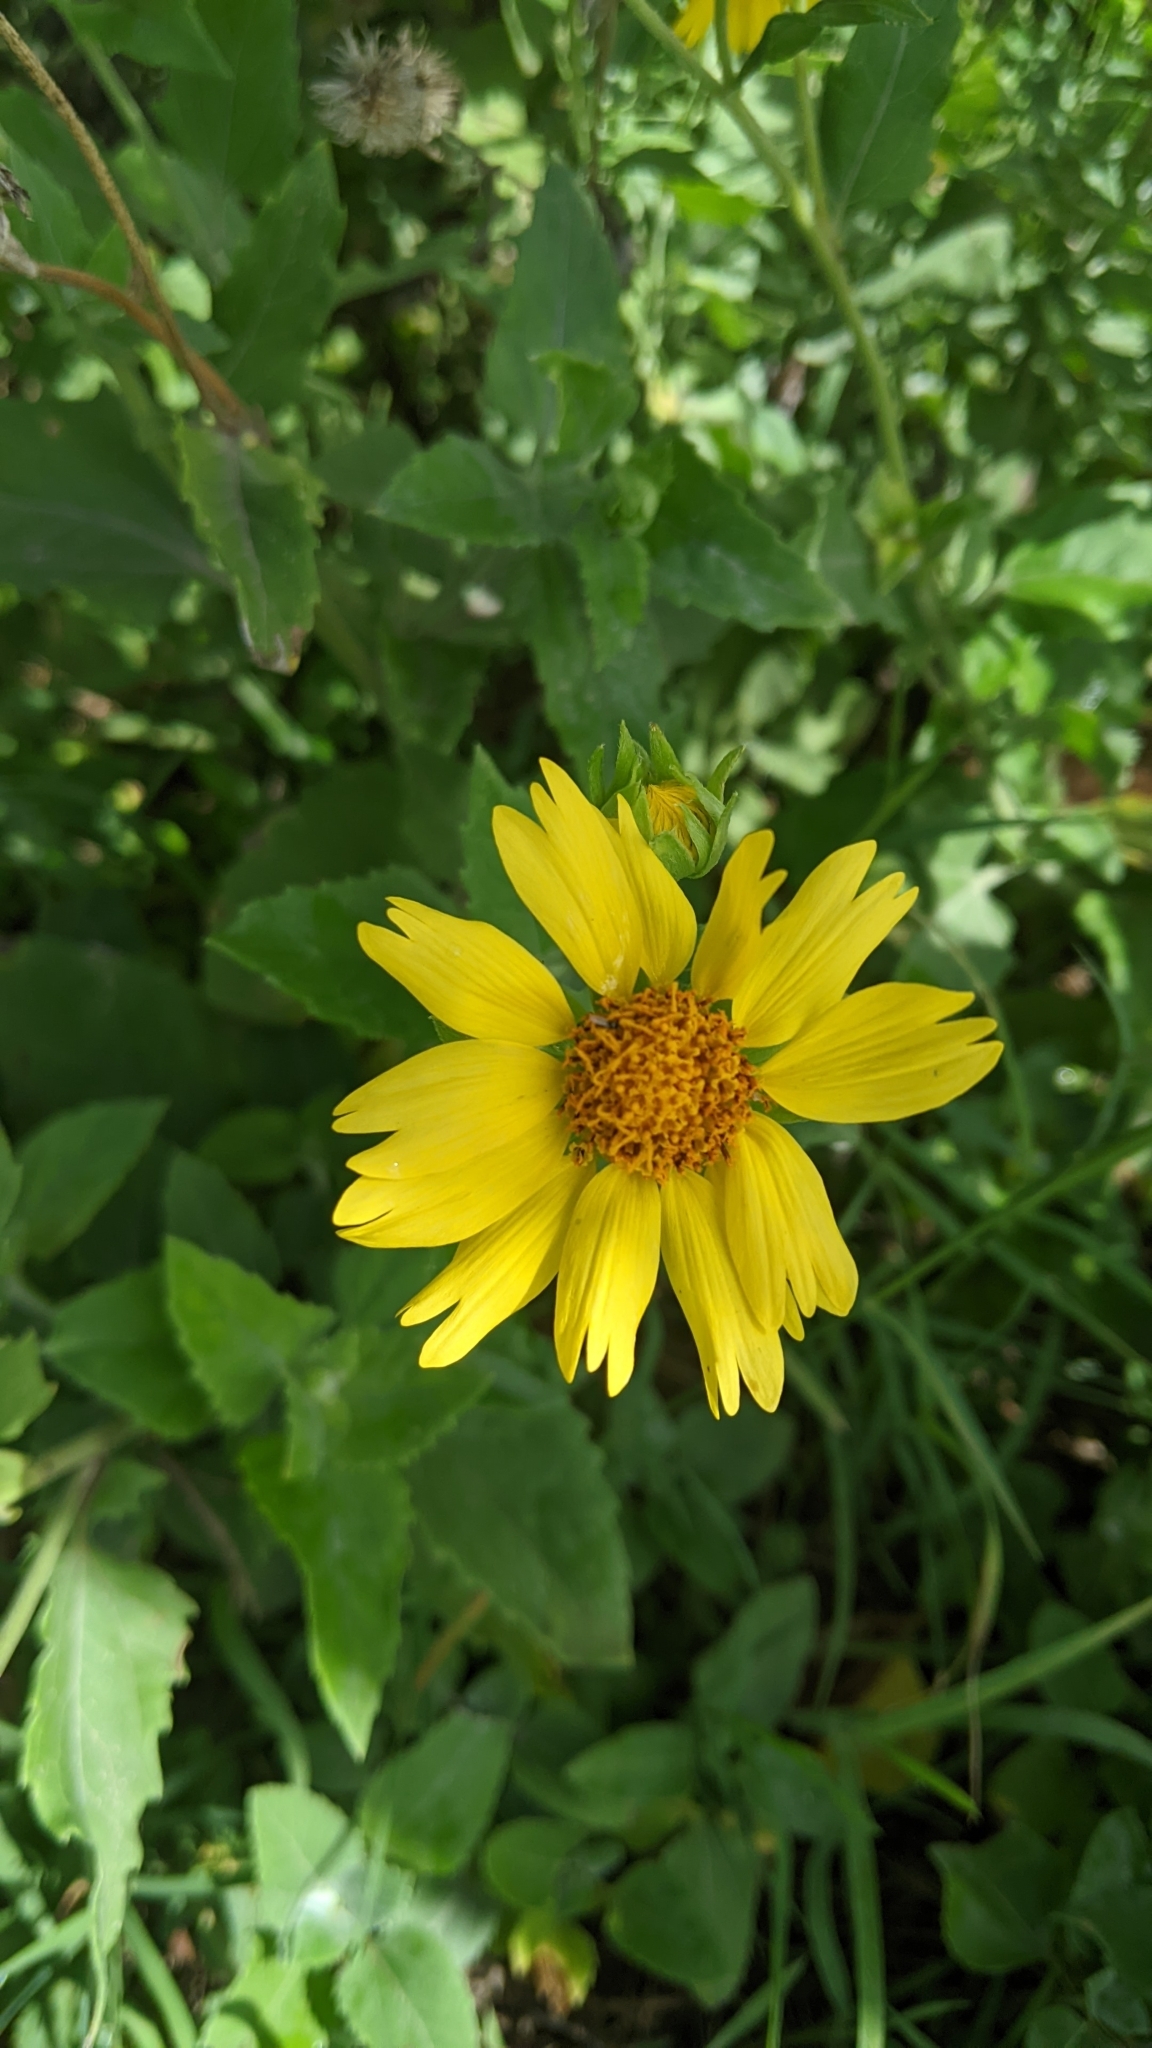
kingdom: Plantae
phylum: Tracheophyta
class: Magnoliopsida
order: Asterales
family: Asteraceae
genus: Verbesina
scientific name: Verbesina encelioides
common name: Golden crownbeard
